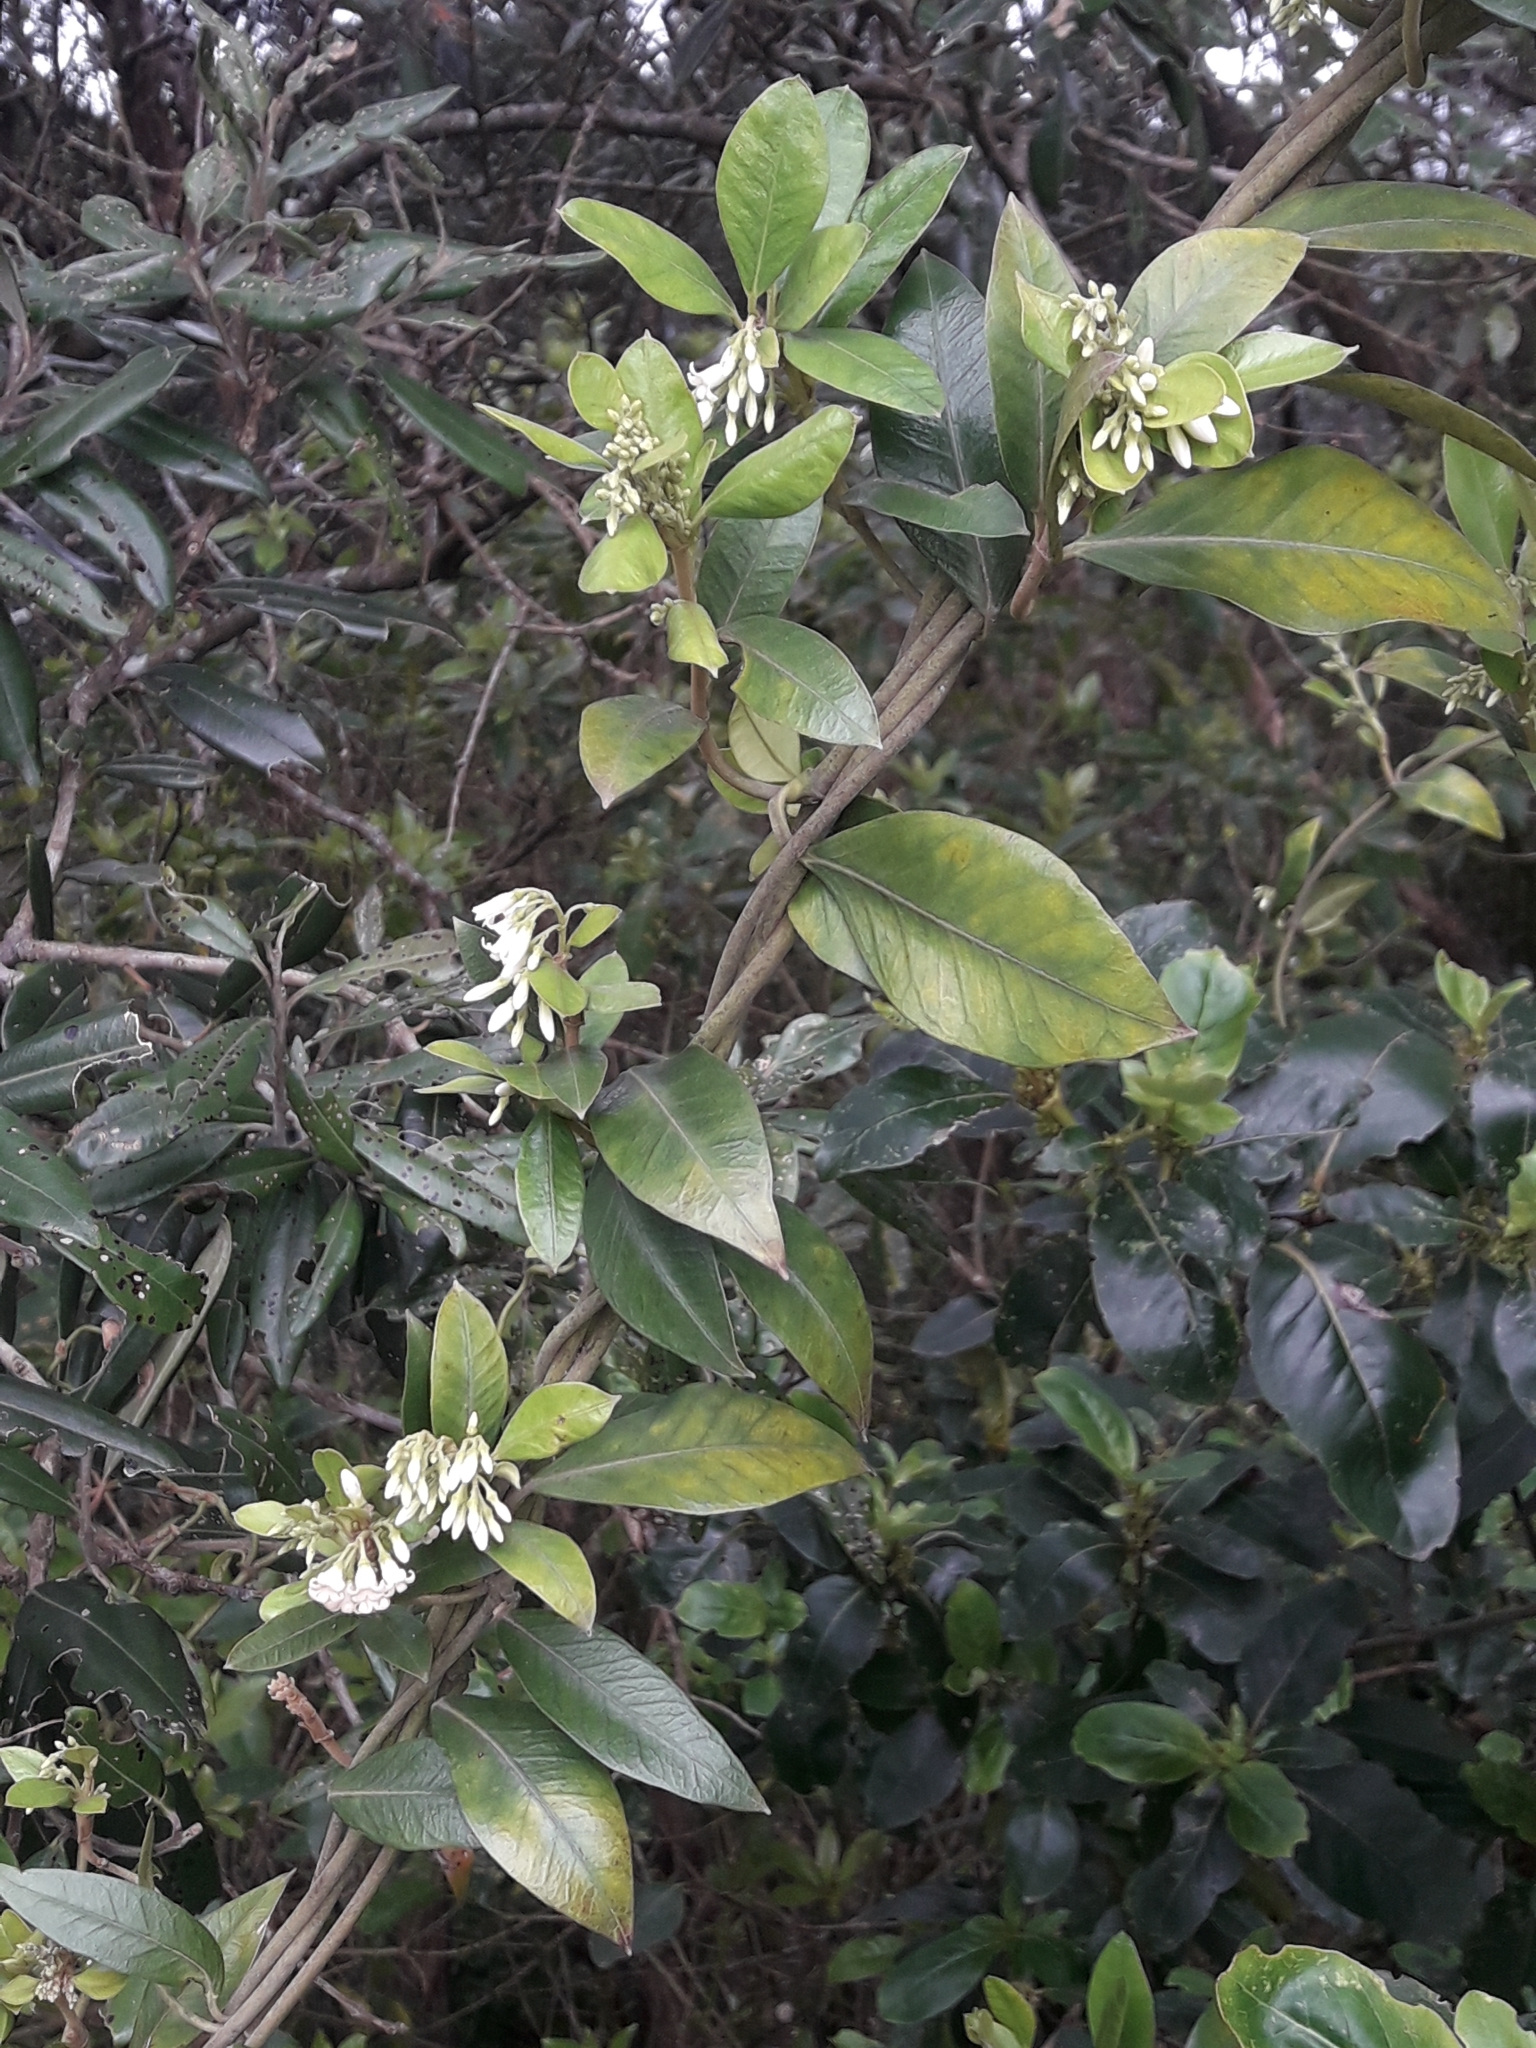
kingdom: Plantae
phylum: Tracheophyta
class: Magnoliopsida
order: Gentianales
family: Apocynaceae
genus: Parsonsia
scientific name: Parsonsia heterophylla
